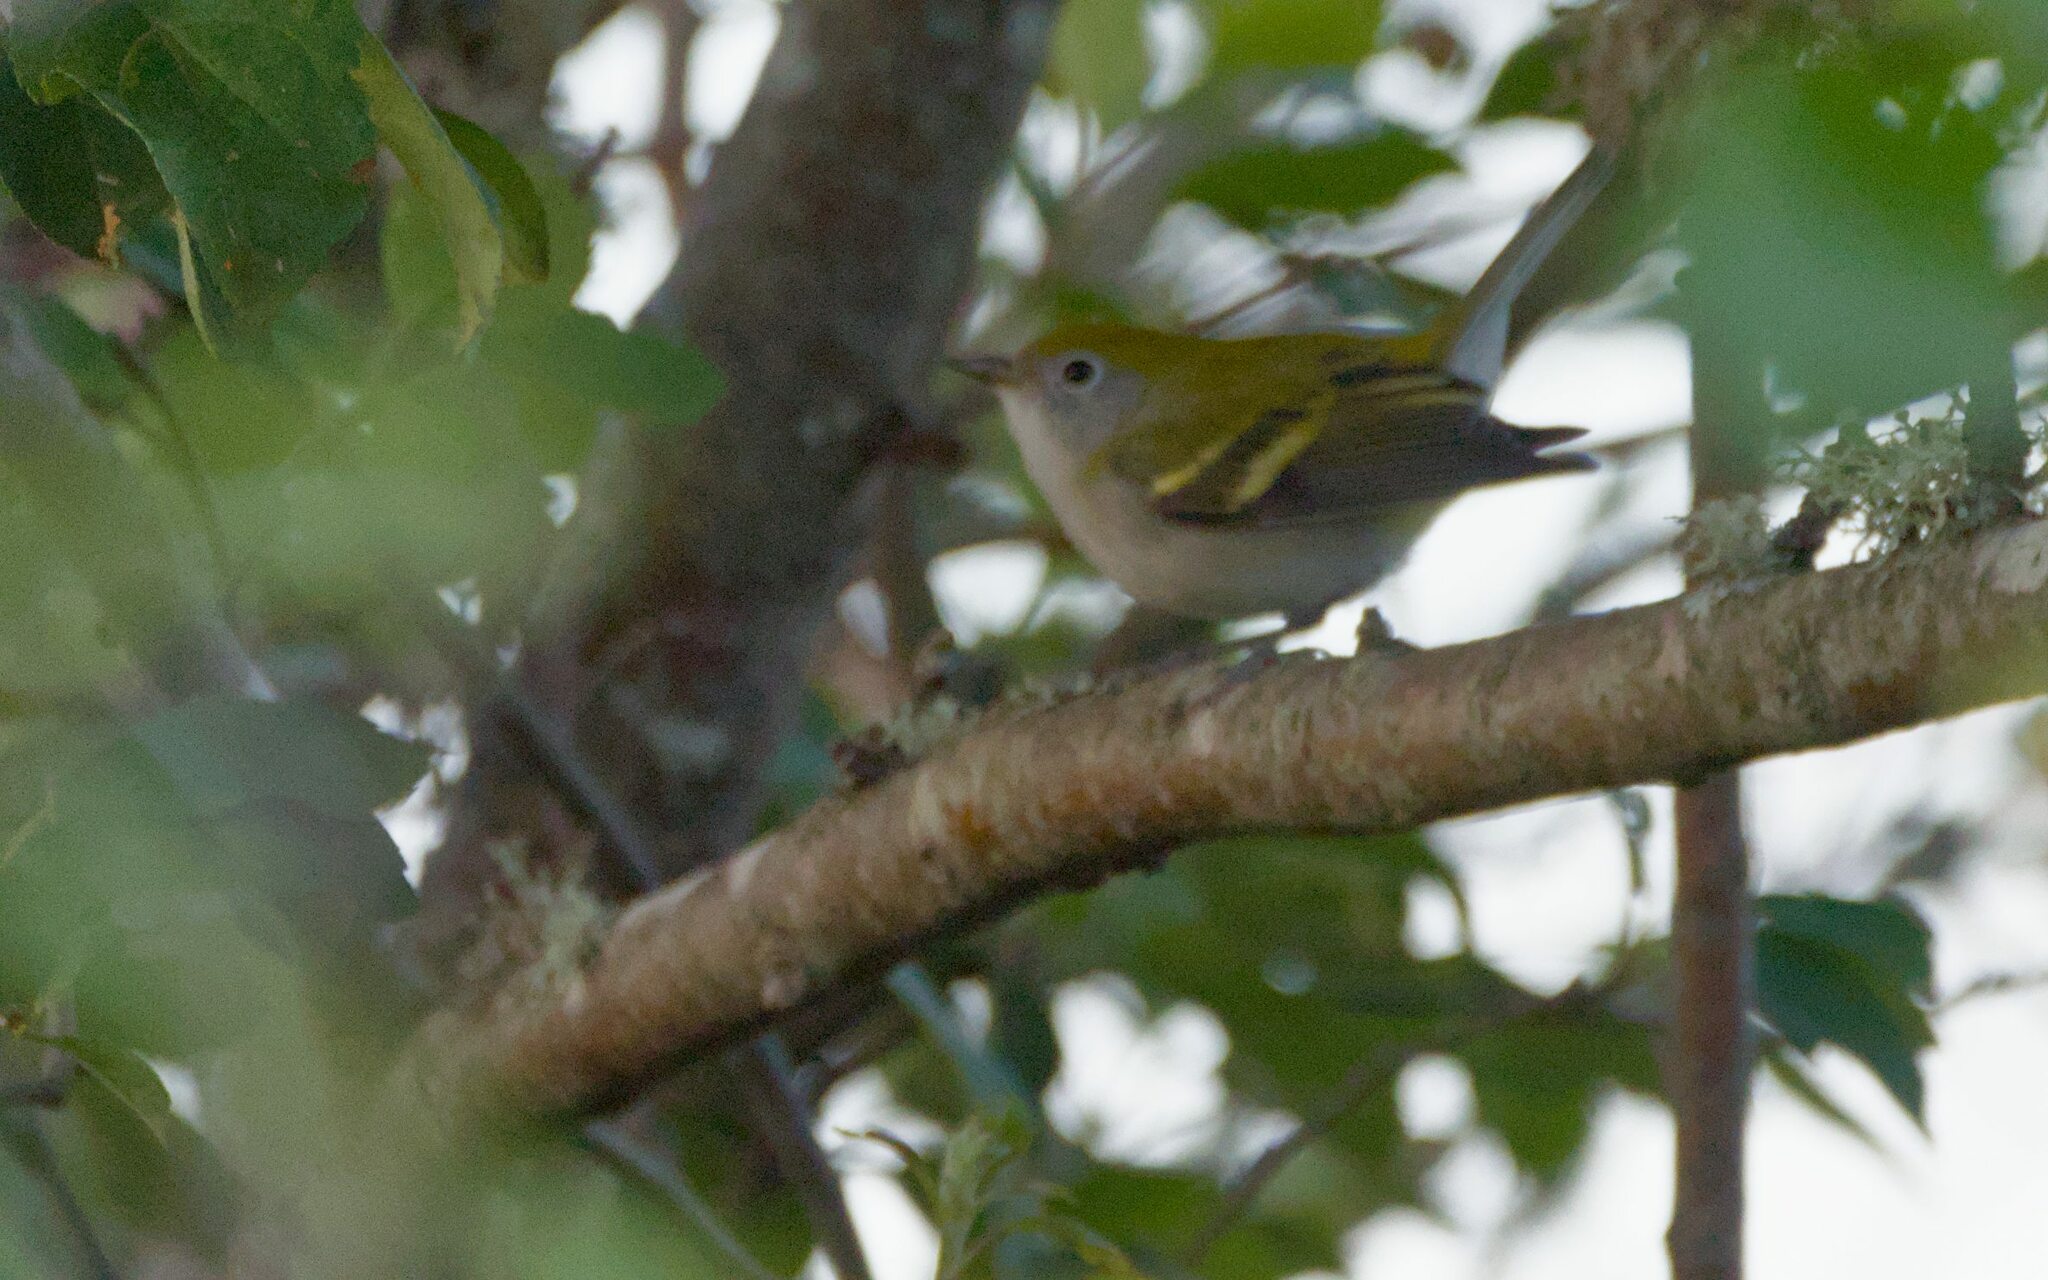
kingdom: Animalia
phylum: Chordata
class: Aves
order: Passeriformes
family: Parulidae
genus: Setophaga
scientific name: Setophaga pensylvanica
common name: Chestnut-sided warbler
